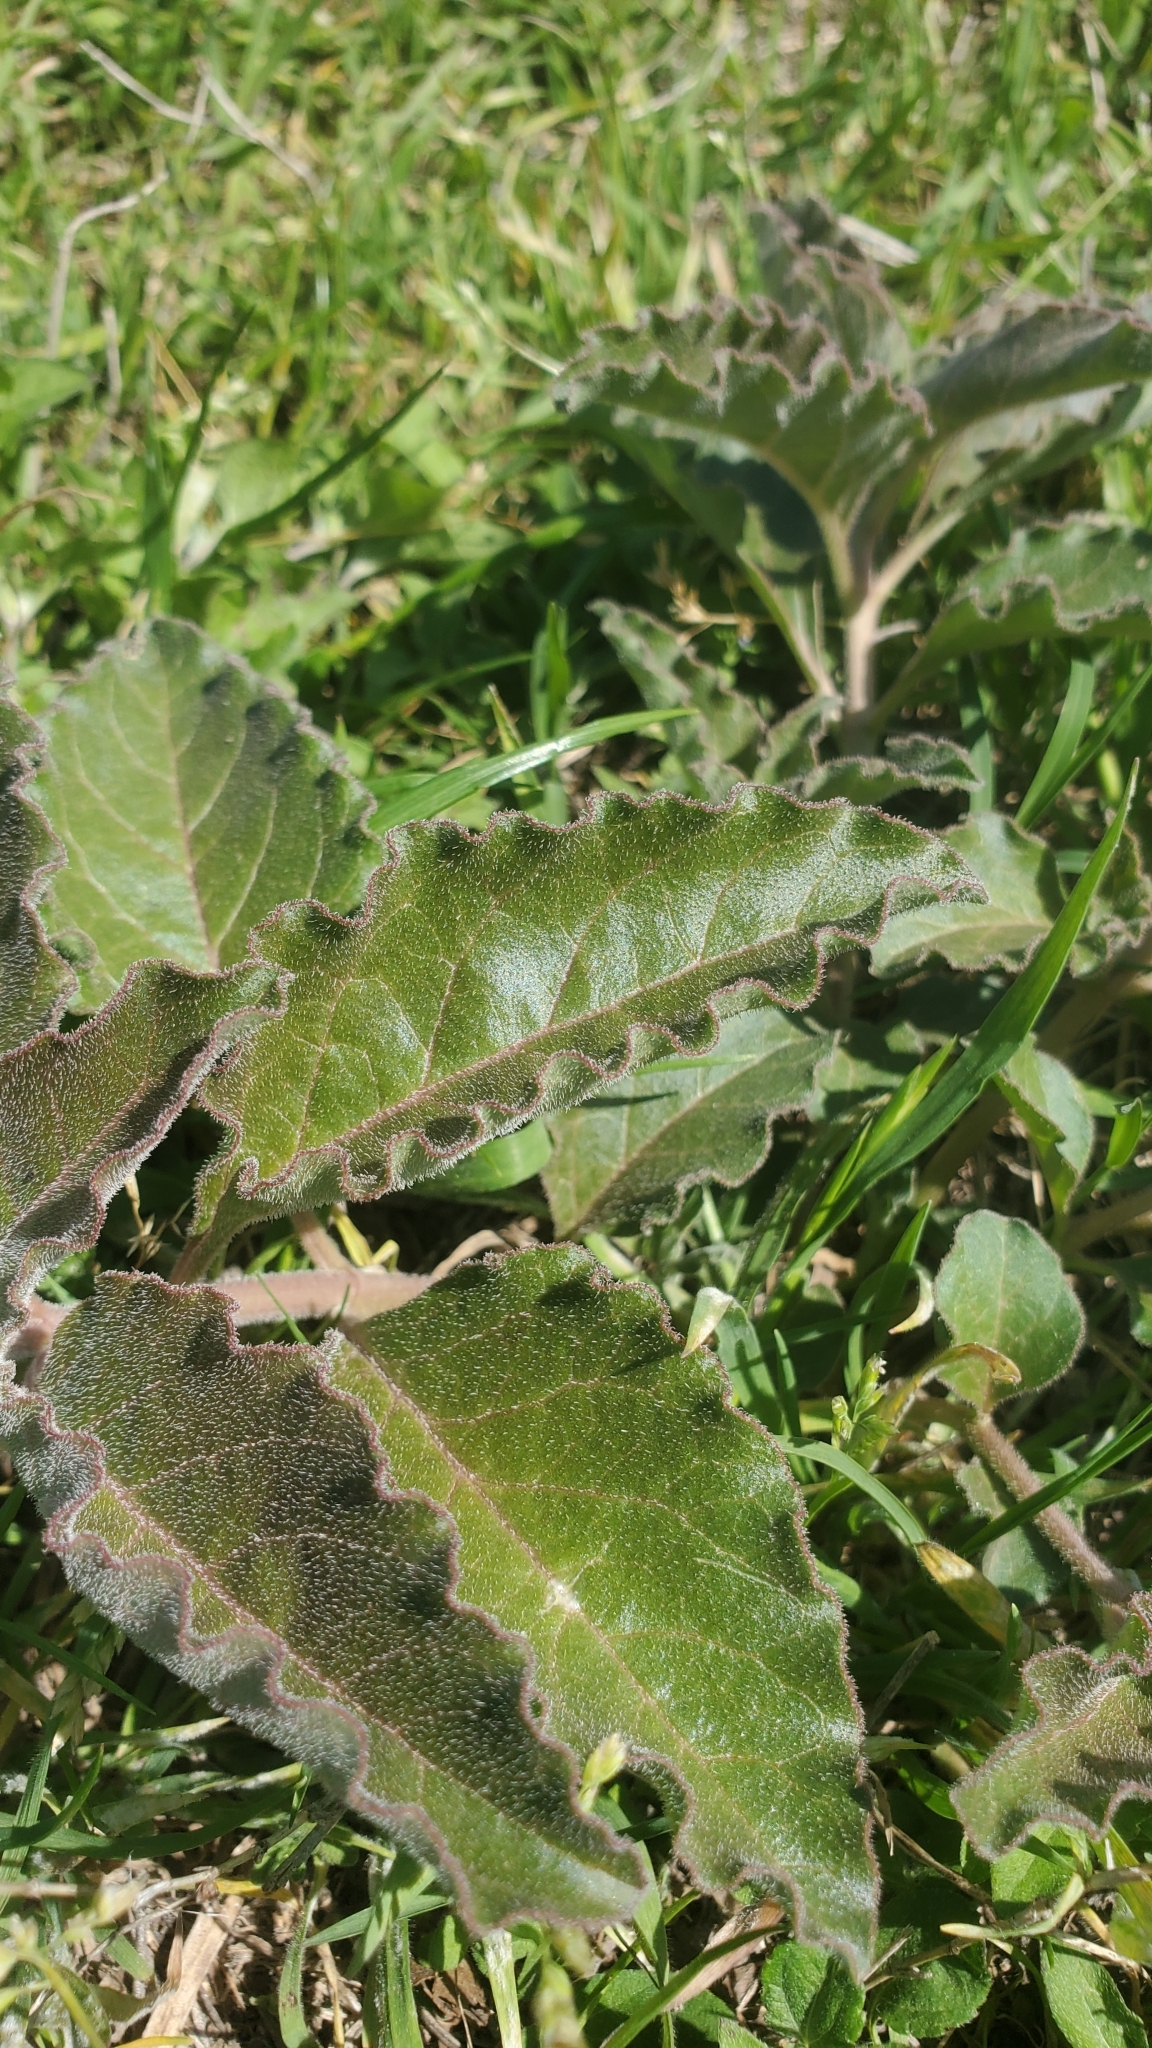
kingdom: Plantae
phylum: Tracheophyta
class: Magnoliopsida
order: Gentianales
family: Apocynaceae
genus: Asclepias
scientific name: Asclepias oenotheroides
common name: Zizotes milkweed
